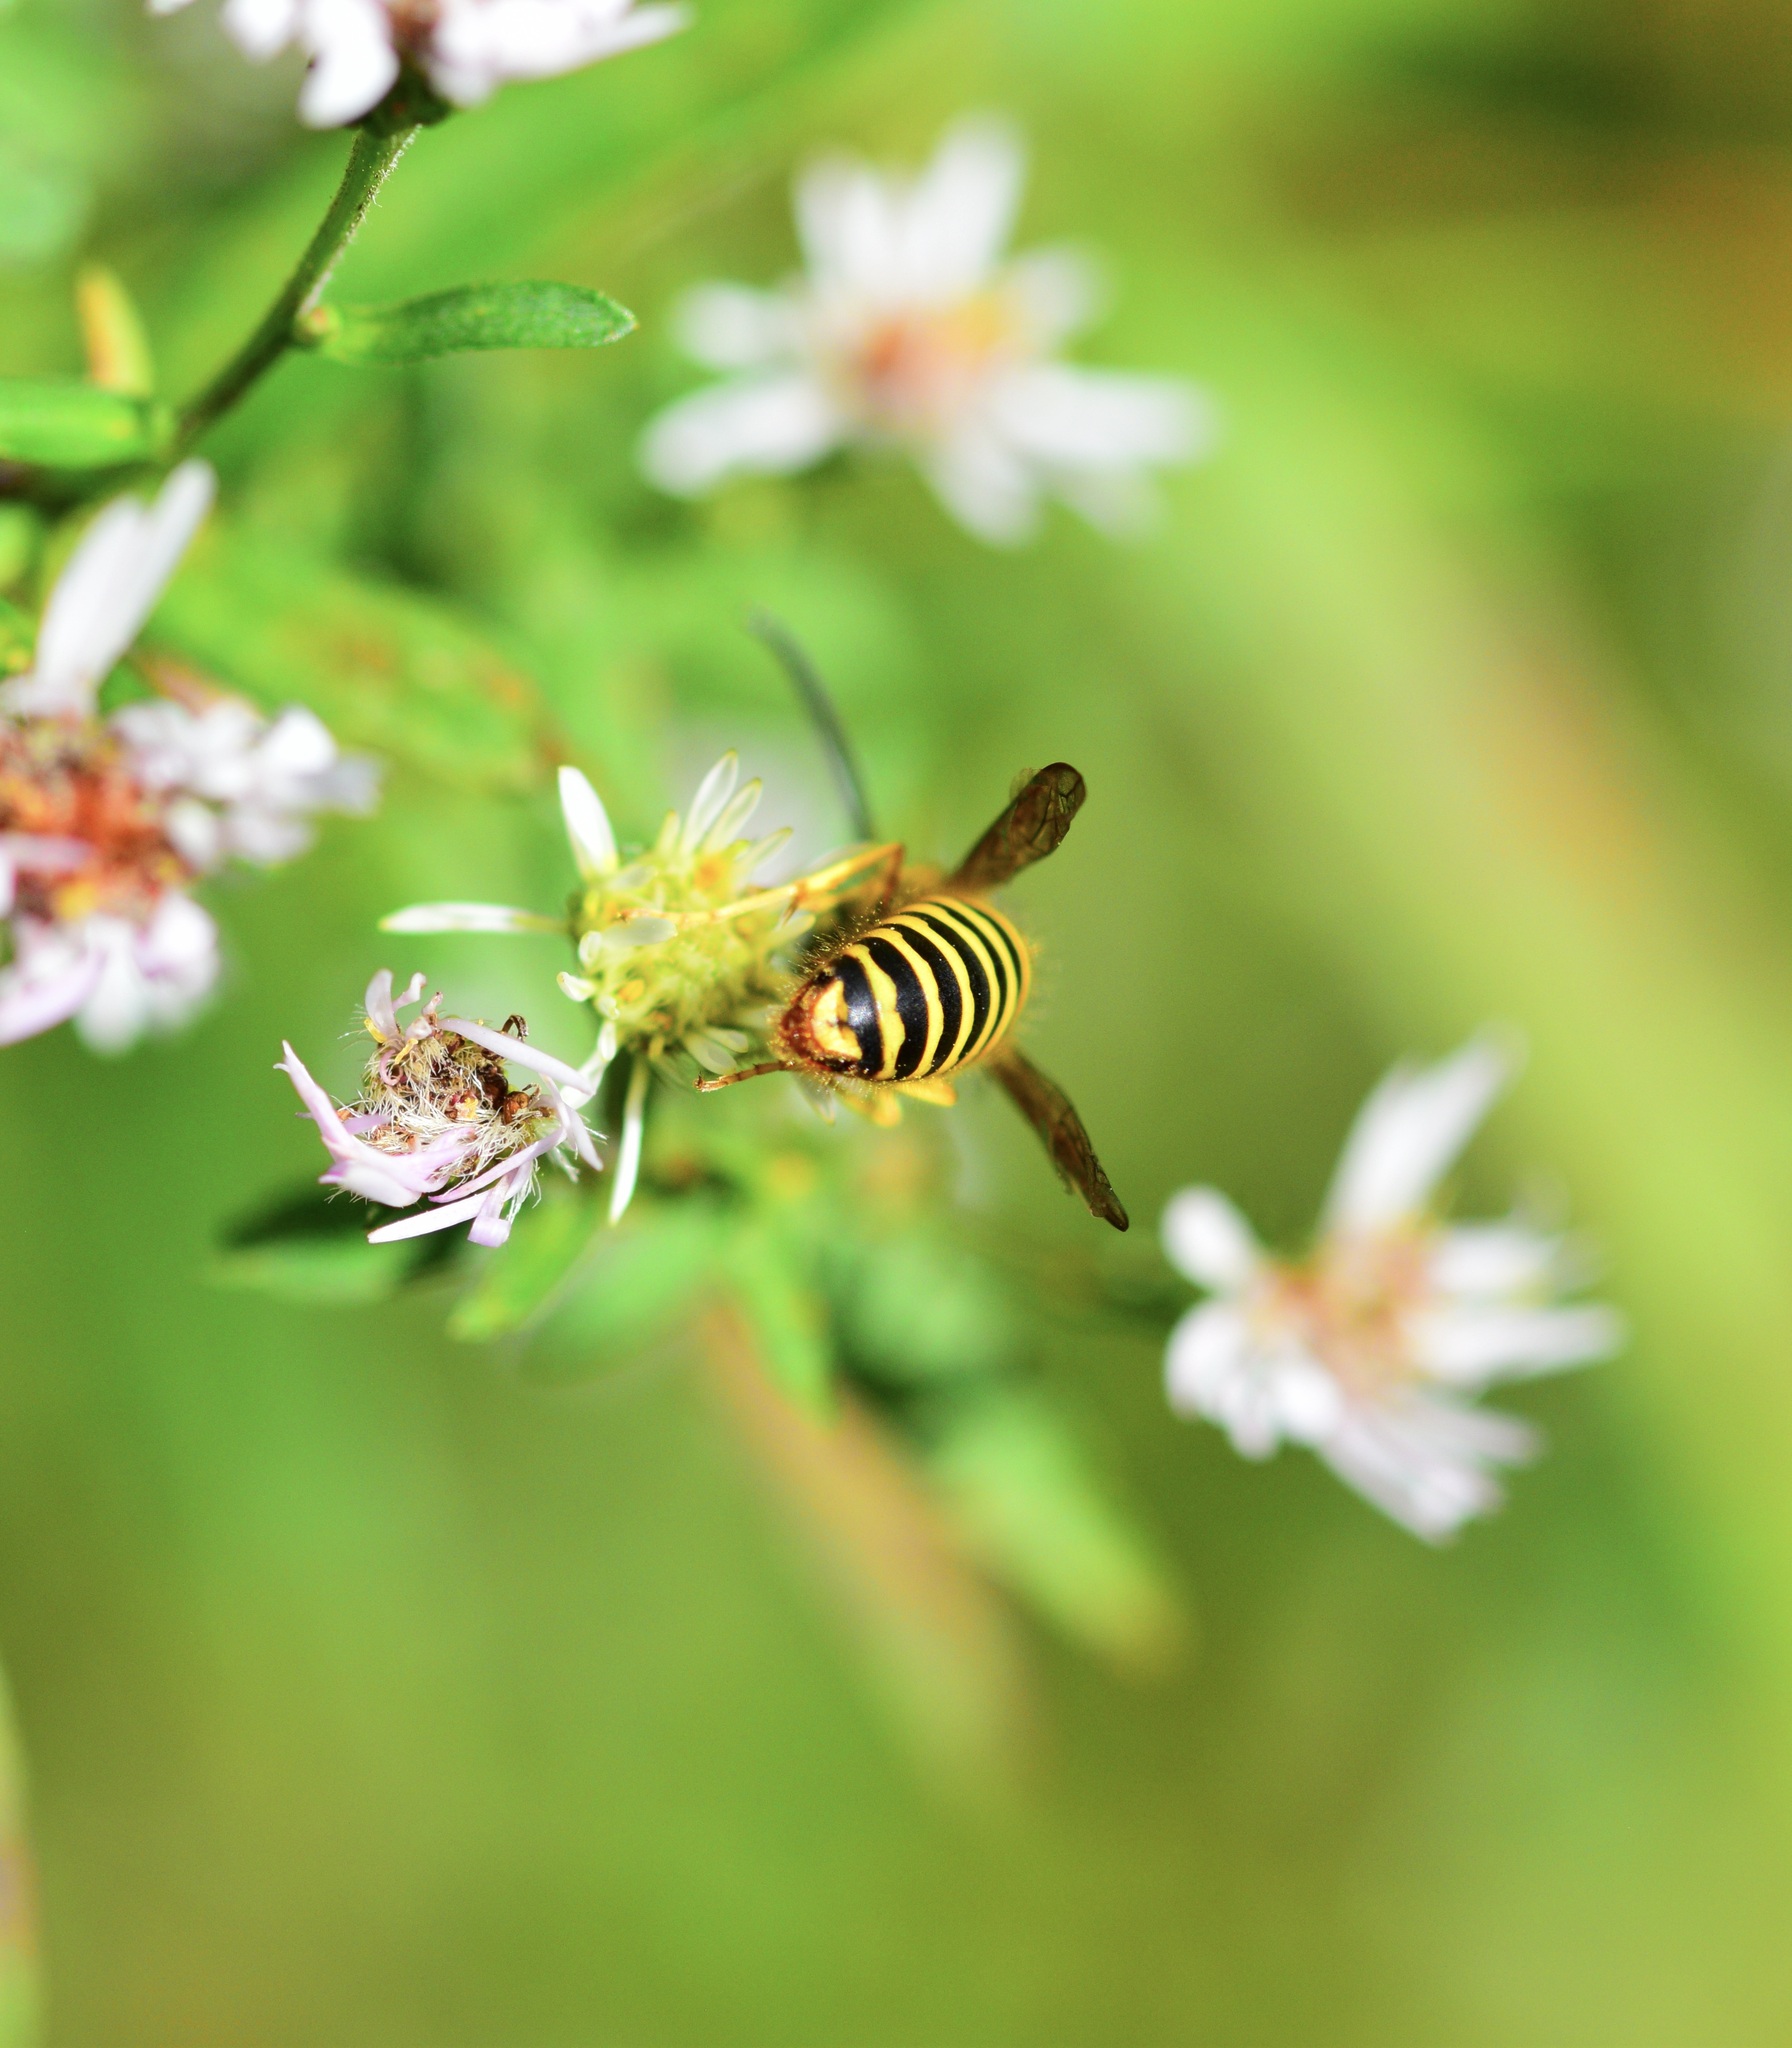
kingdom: Animalia
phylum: Arthropoda
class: Insecta
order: Hymenoptera
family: Vespidae
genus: Vespula
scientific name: Vespula maculifrons
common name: Eastern yellowjacket
